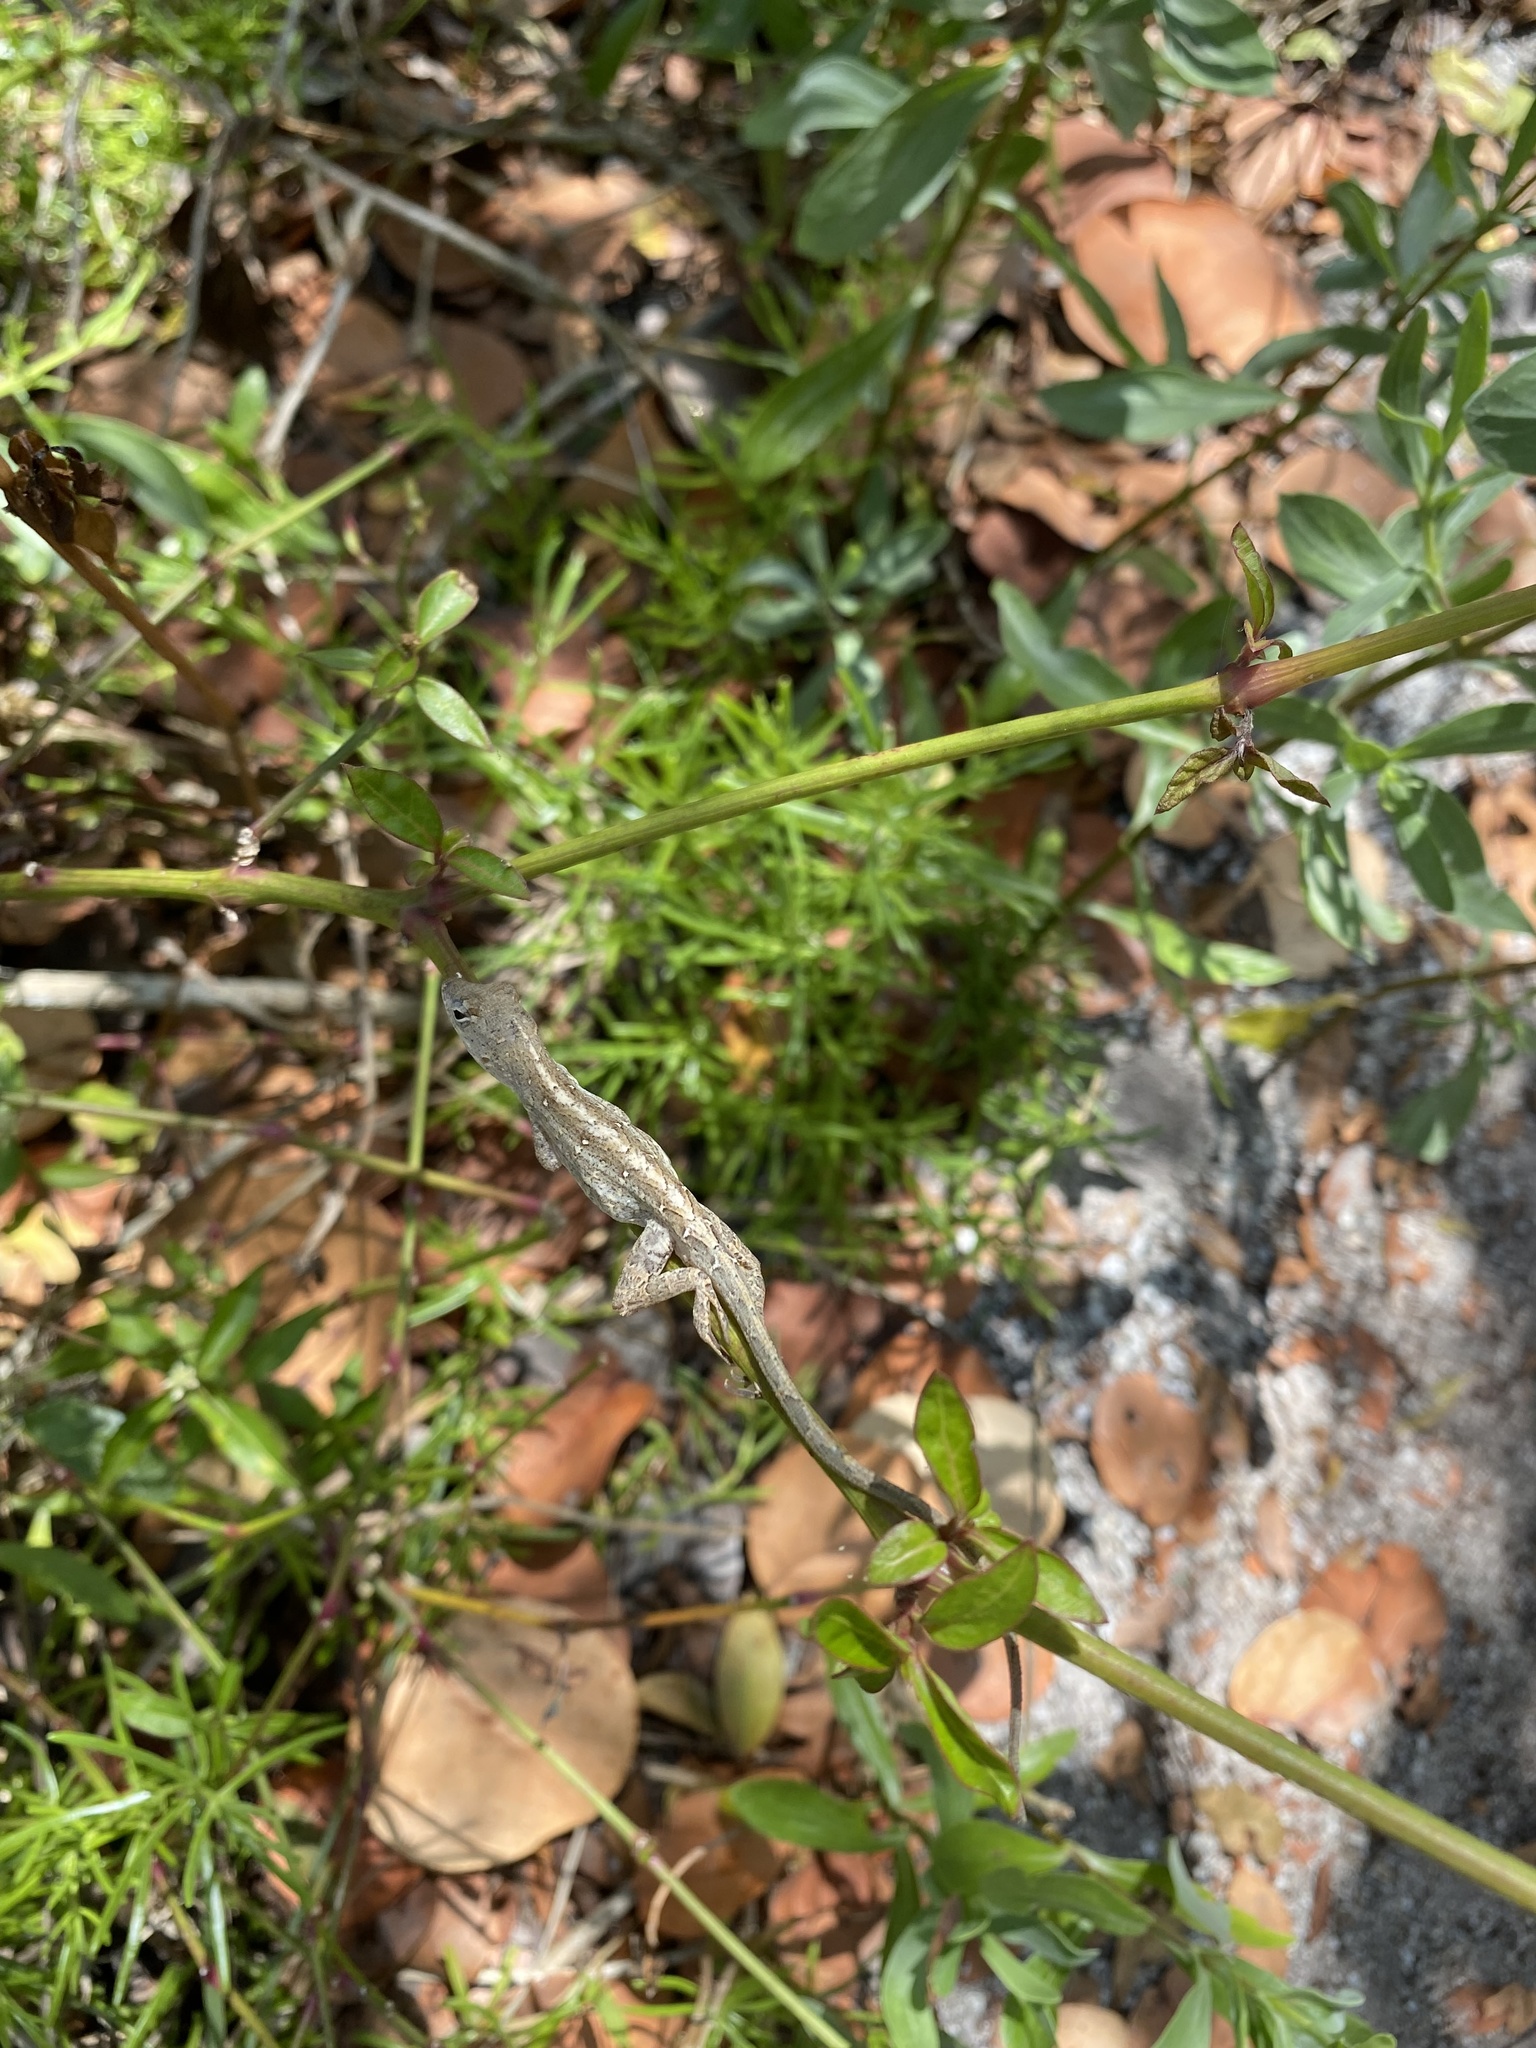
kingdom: Animalia
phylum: Chordata
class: Squamata
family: Dactyloidae
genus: Anolis
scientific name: Anolis sagrei
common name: Brown anole
